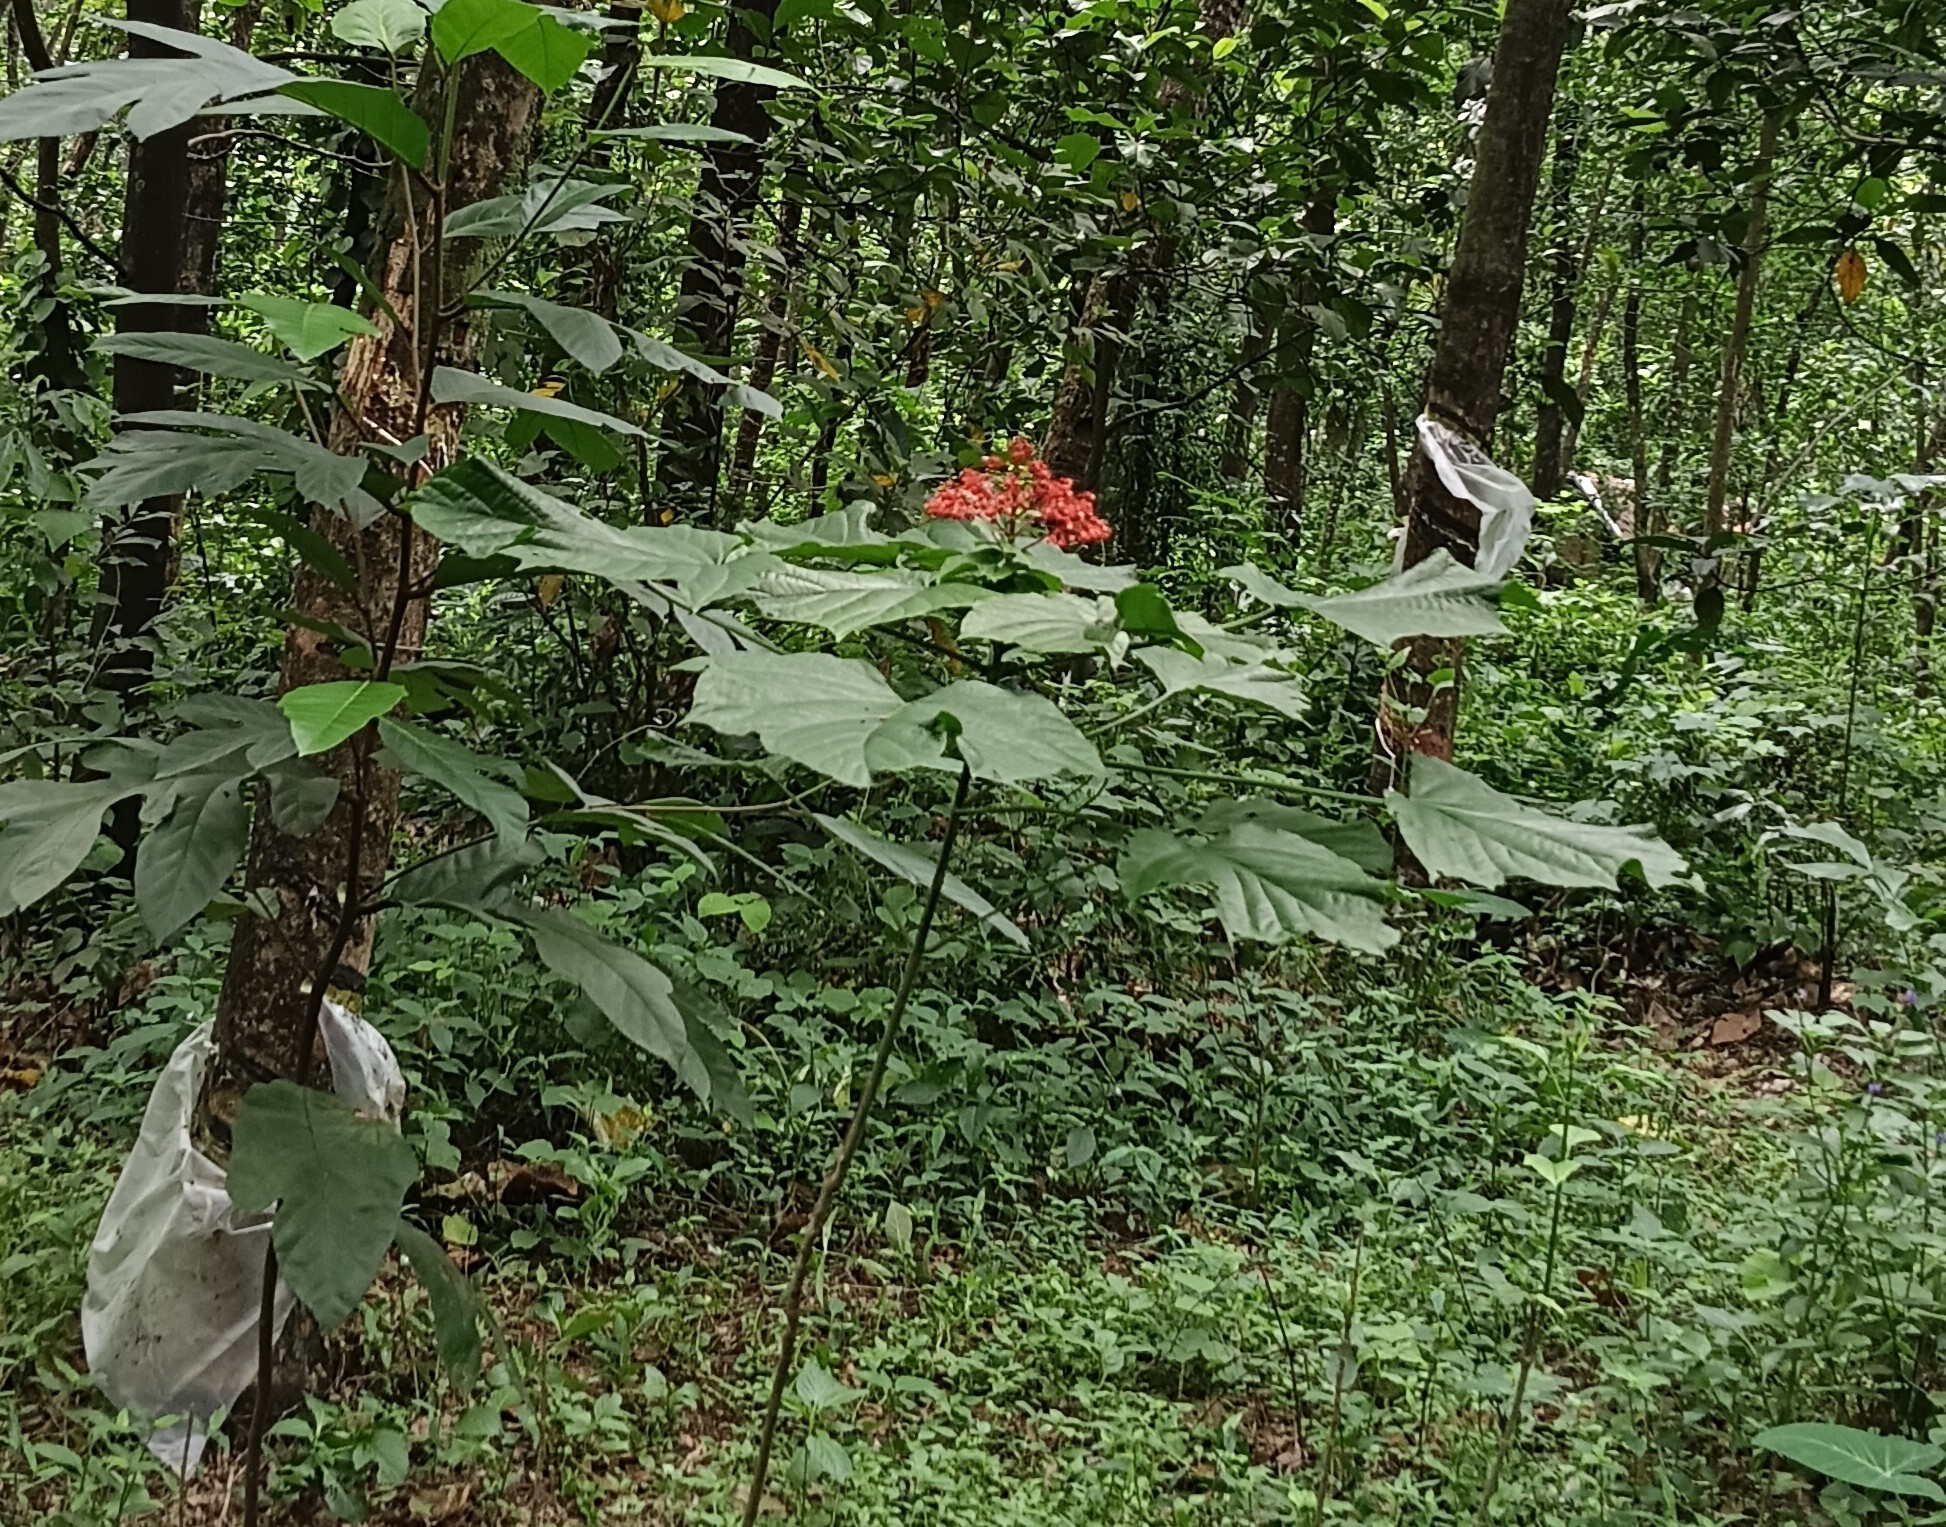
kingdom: Plantae
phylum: Tracheophyta
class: Magnoliopsida
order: Lamiales
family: Lamiaceae
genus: Clerodendrum
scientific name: Clerodendrum paniculatum
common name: Pagoda-flower
